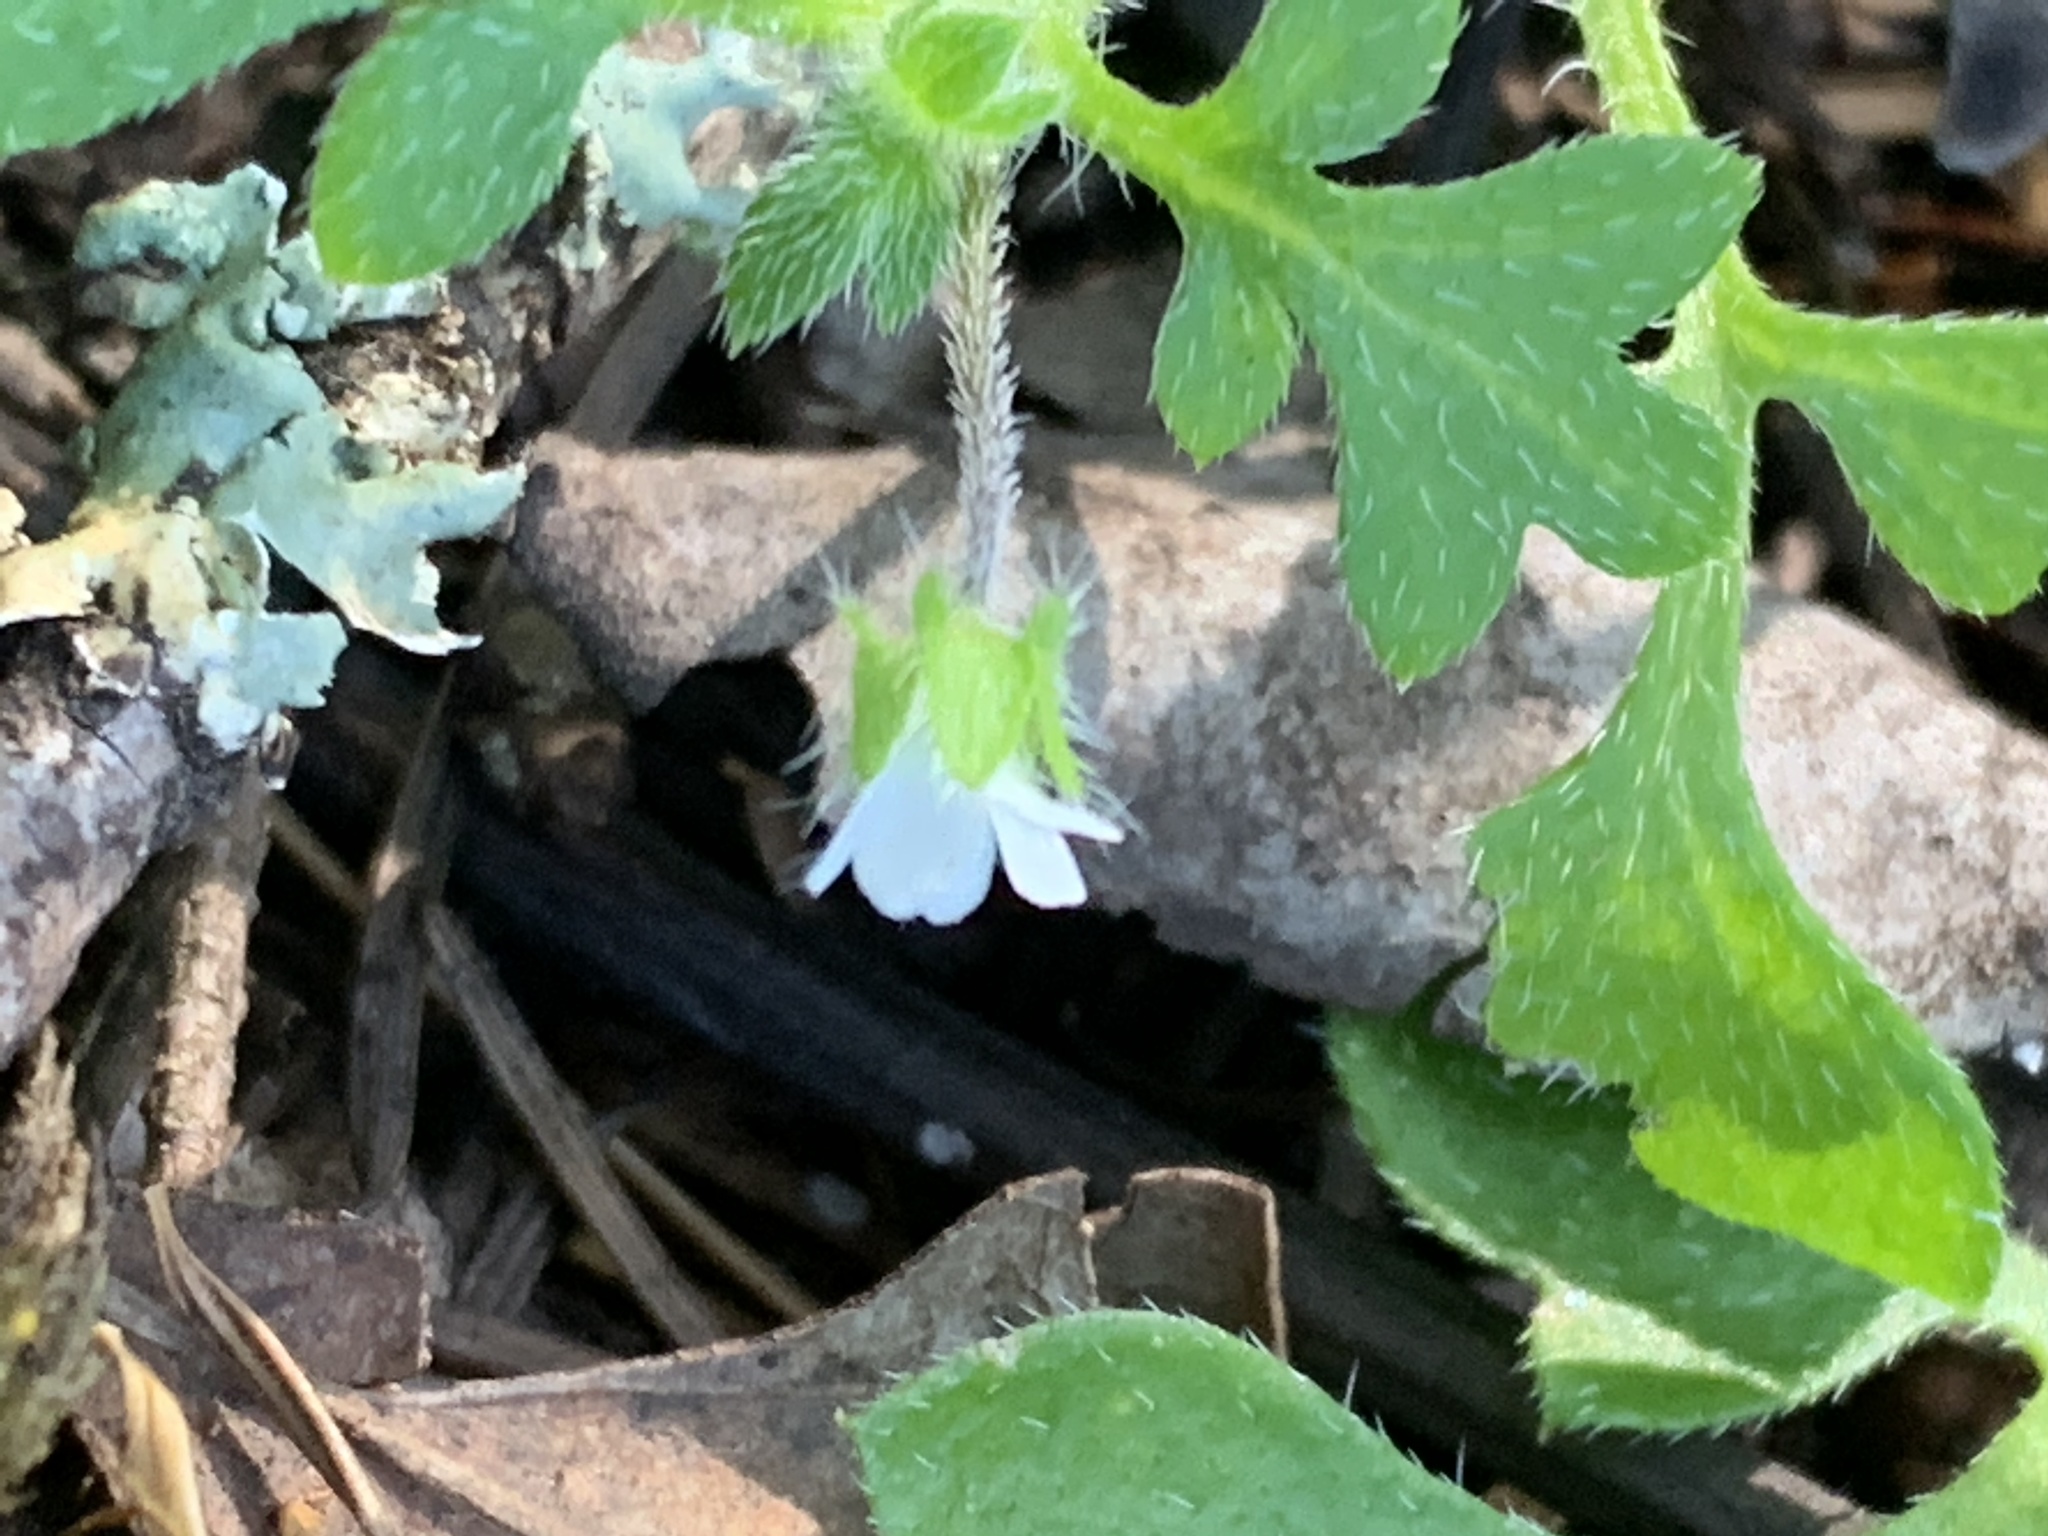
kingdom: Plantae
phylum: Tracheophyta
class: Magnoliopsida
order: Boraginales
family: Hydrophyllaceae
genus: Nemophila
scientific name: Nemophila parviflora
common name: Small-flowered baby-blue-eyes
